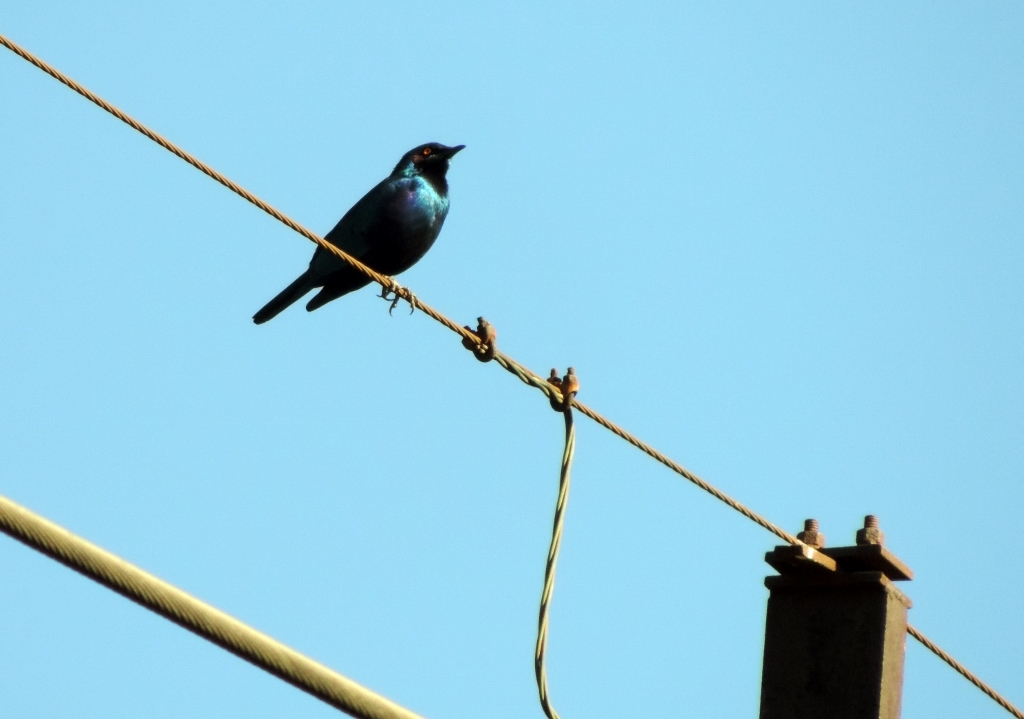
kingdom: Animalia
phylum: Chordata
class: Aves
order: Passeriformes
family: Sturnidae
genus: Lamprotornis
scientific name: Lamprotornis chloropterus
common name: Lesser blue-eared starling
